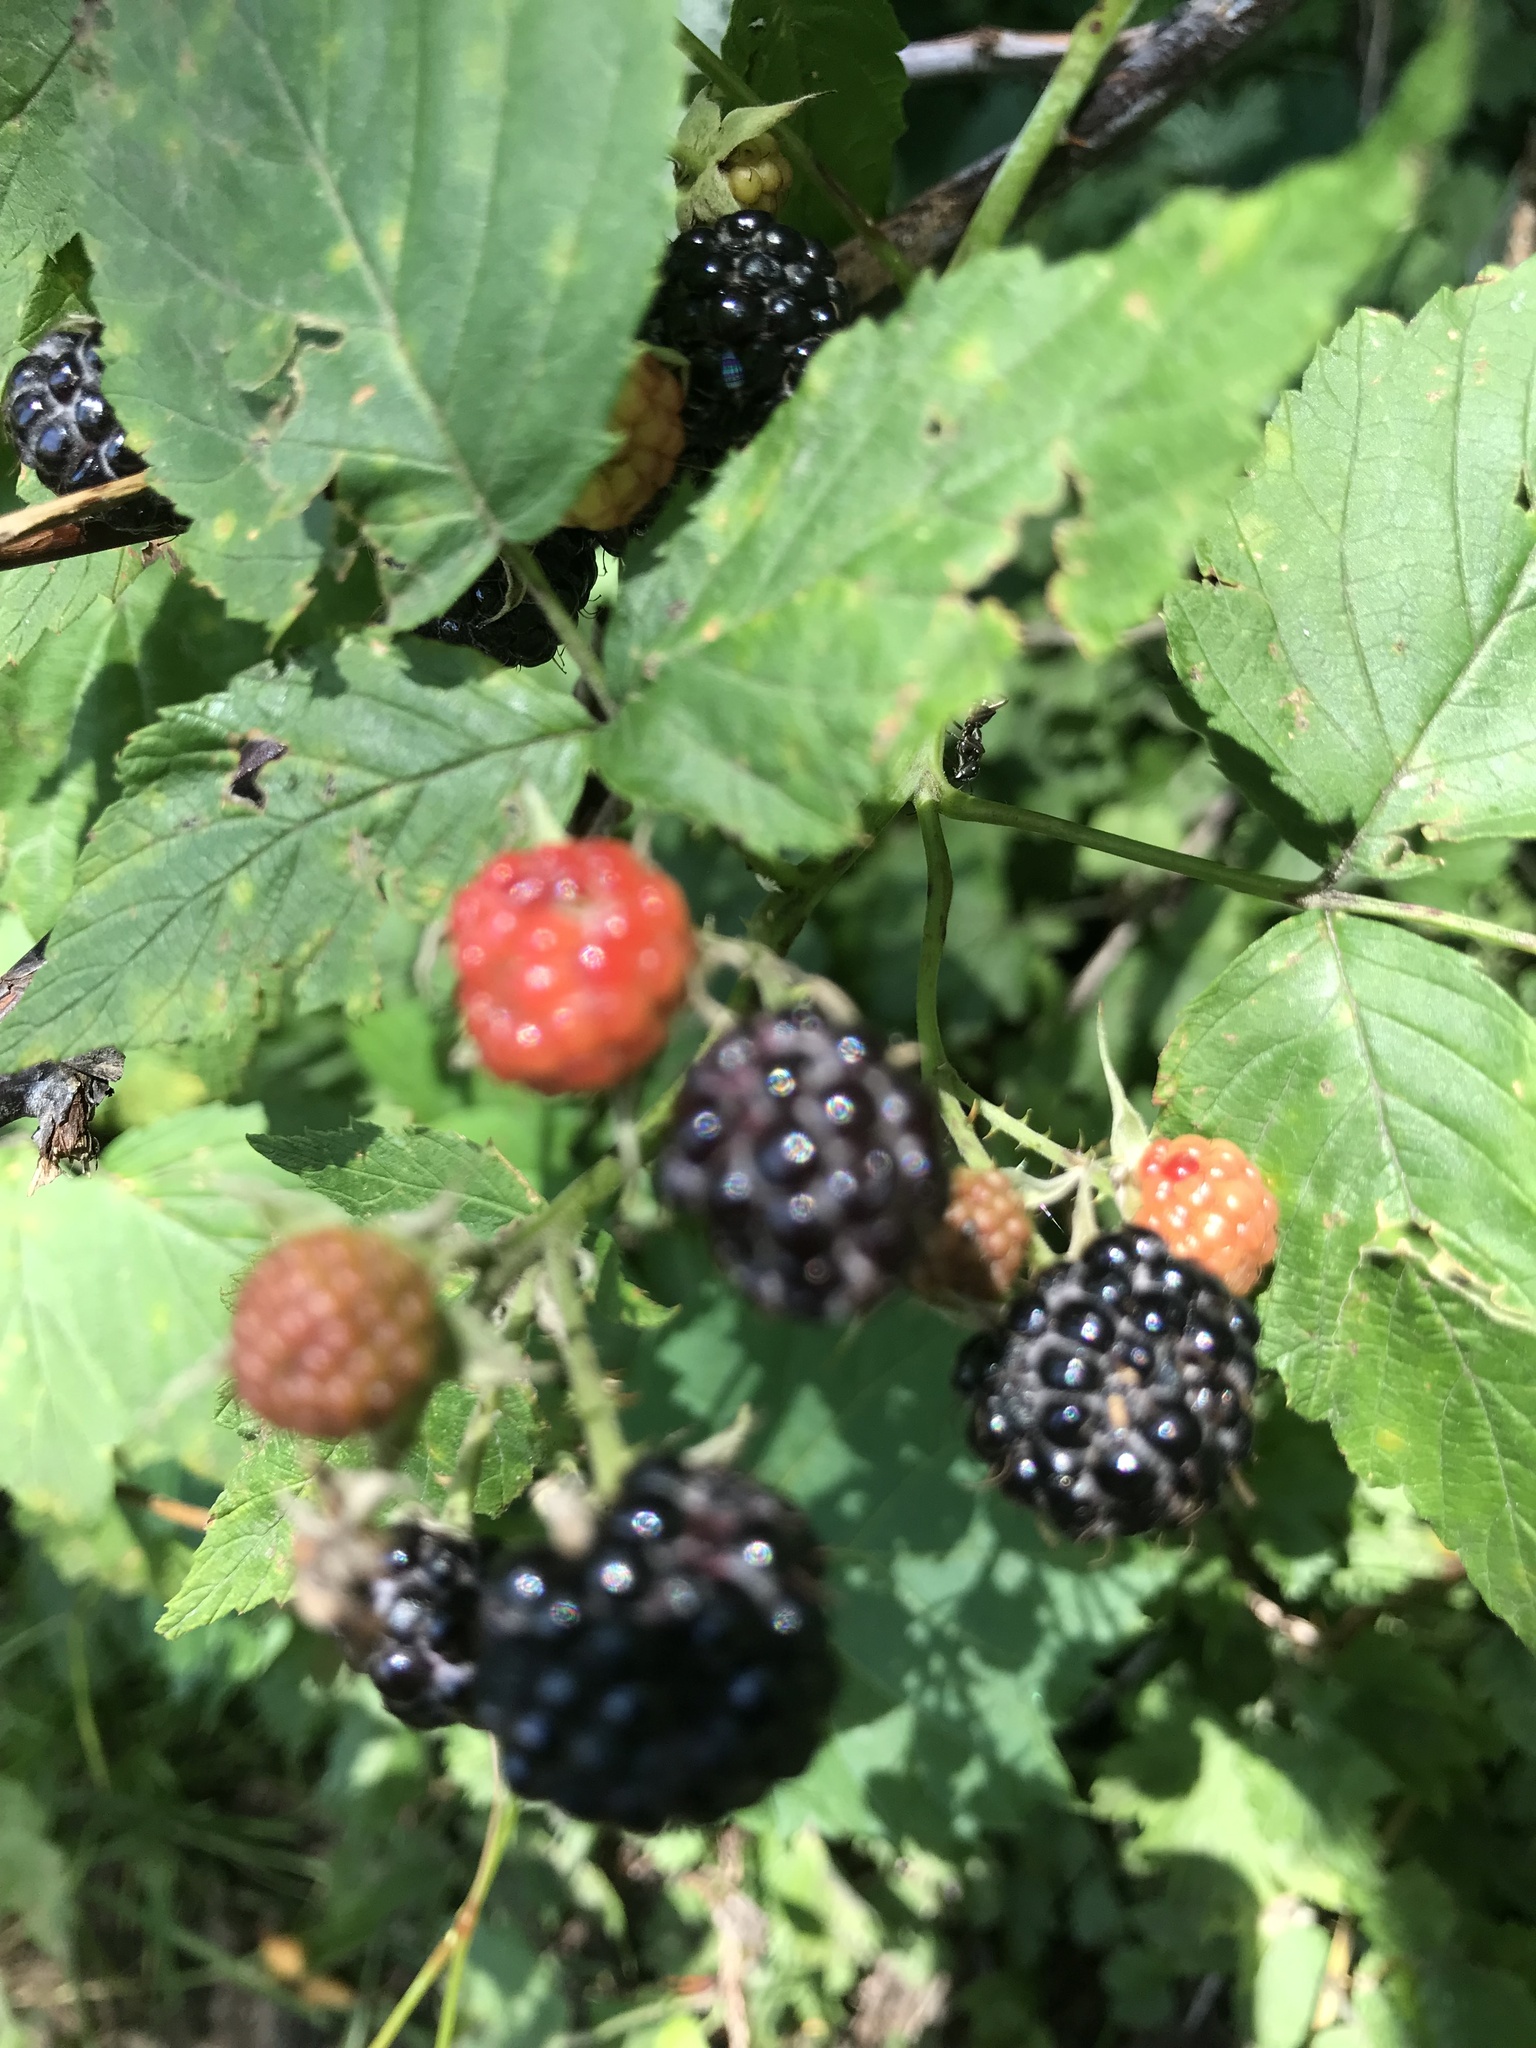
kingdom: Plantae
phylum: Tracheophyta
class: Magnoliopsida
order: Rosales
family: Rosaceae
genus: Rubus
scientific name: Rubus occidentalis
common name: Black raspberry
